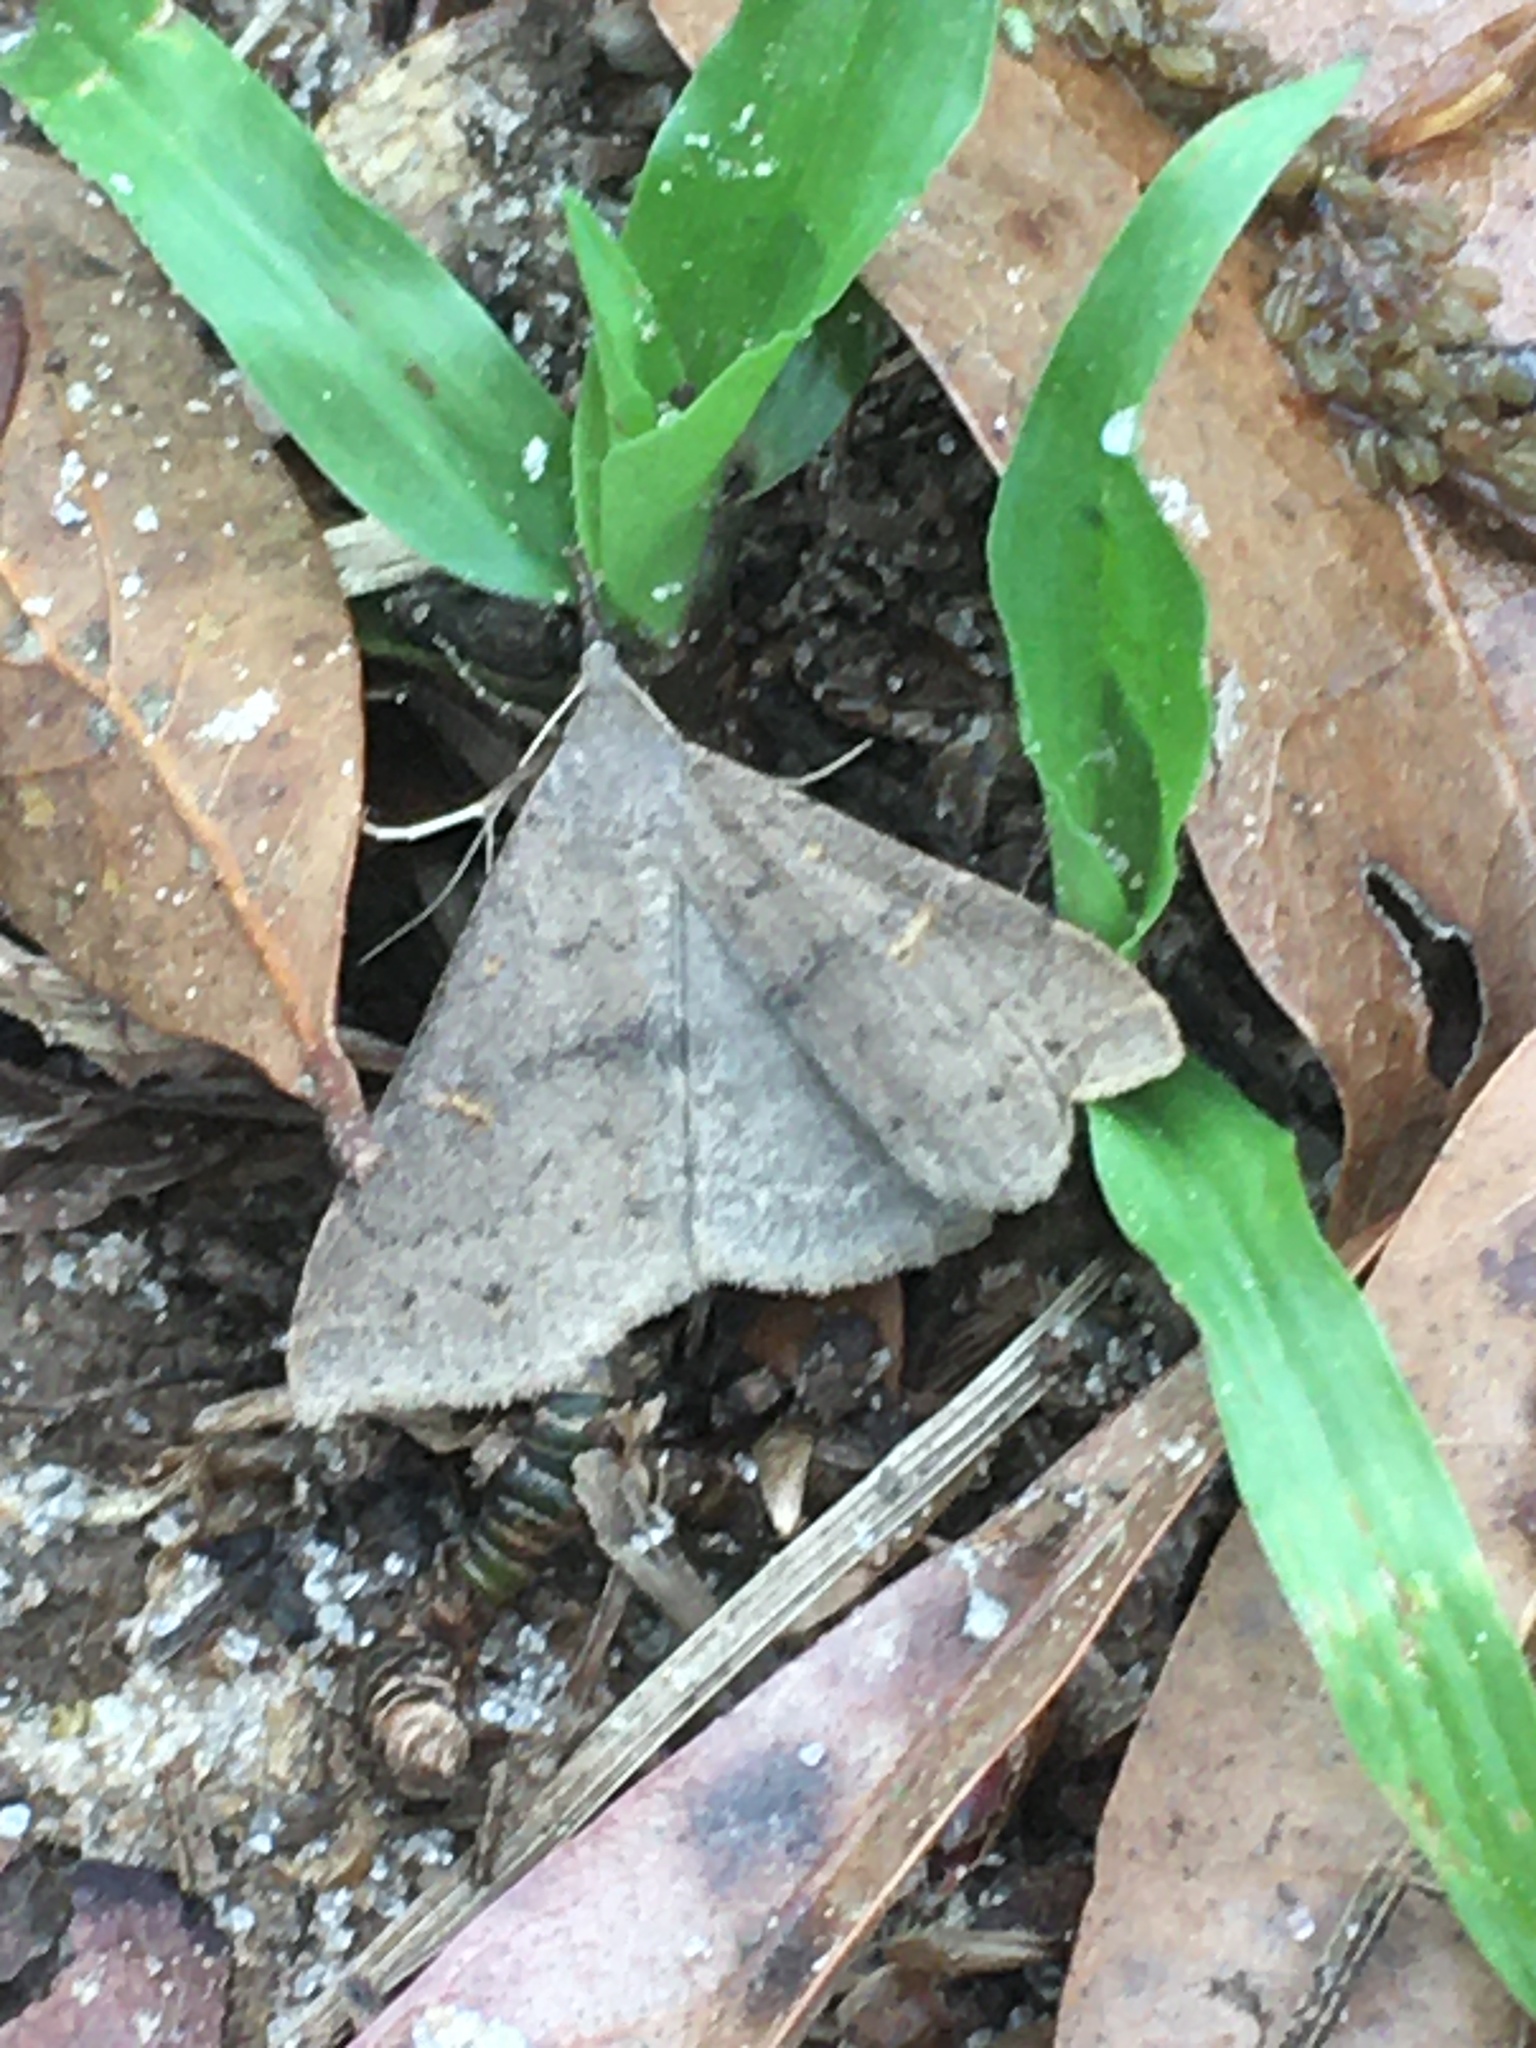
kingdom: Animalia
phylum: Arthropoda
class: Insecta
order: Lepidoptera
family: Erebidae
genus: Renia
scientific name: Renia adspergillus
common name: Speckled renia moth
